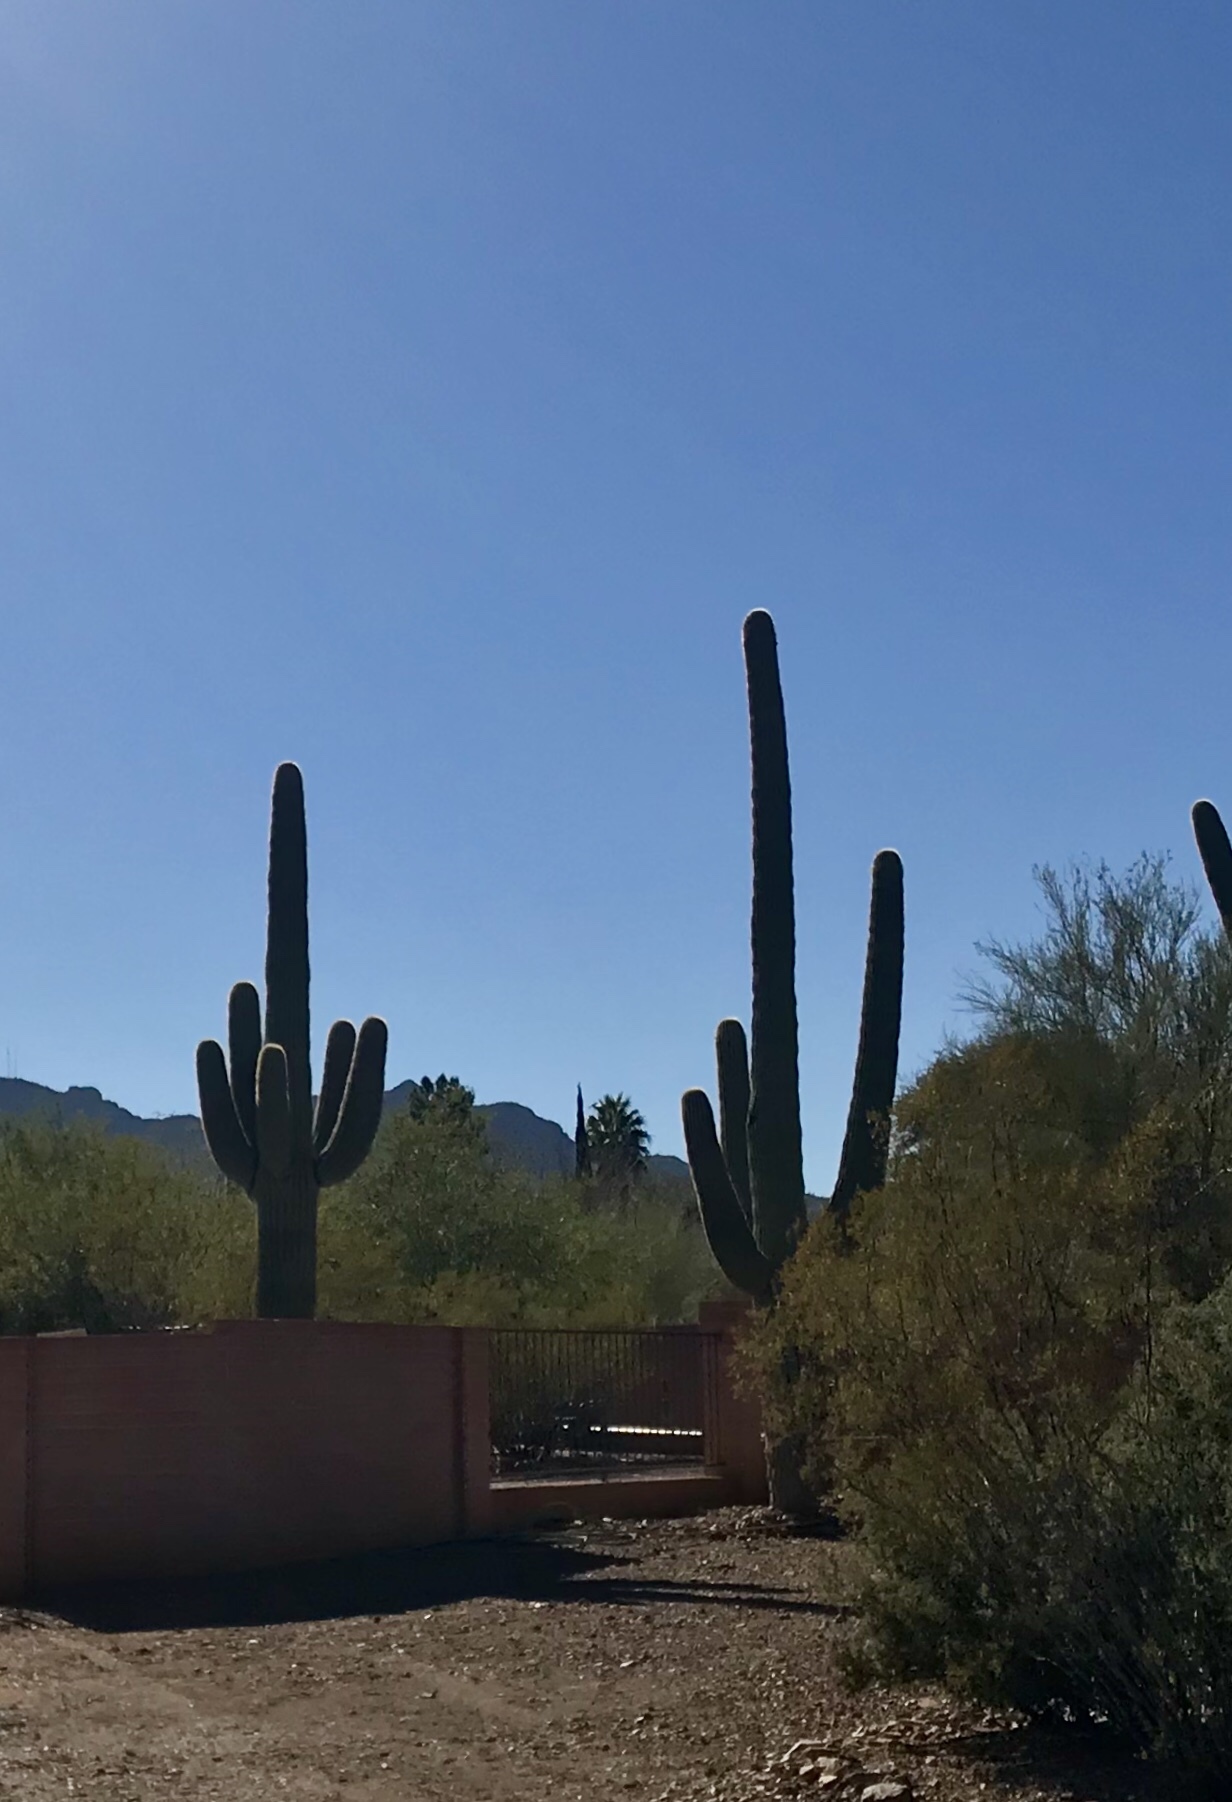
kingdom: Plantae
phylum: Tracheophyta
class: Magnoliopsida
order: Caryophyllales
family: Cactaceae
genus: Carnegiea
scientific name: Carnegiea gigantea
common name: Saguaro
